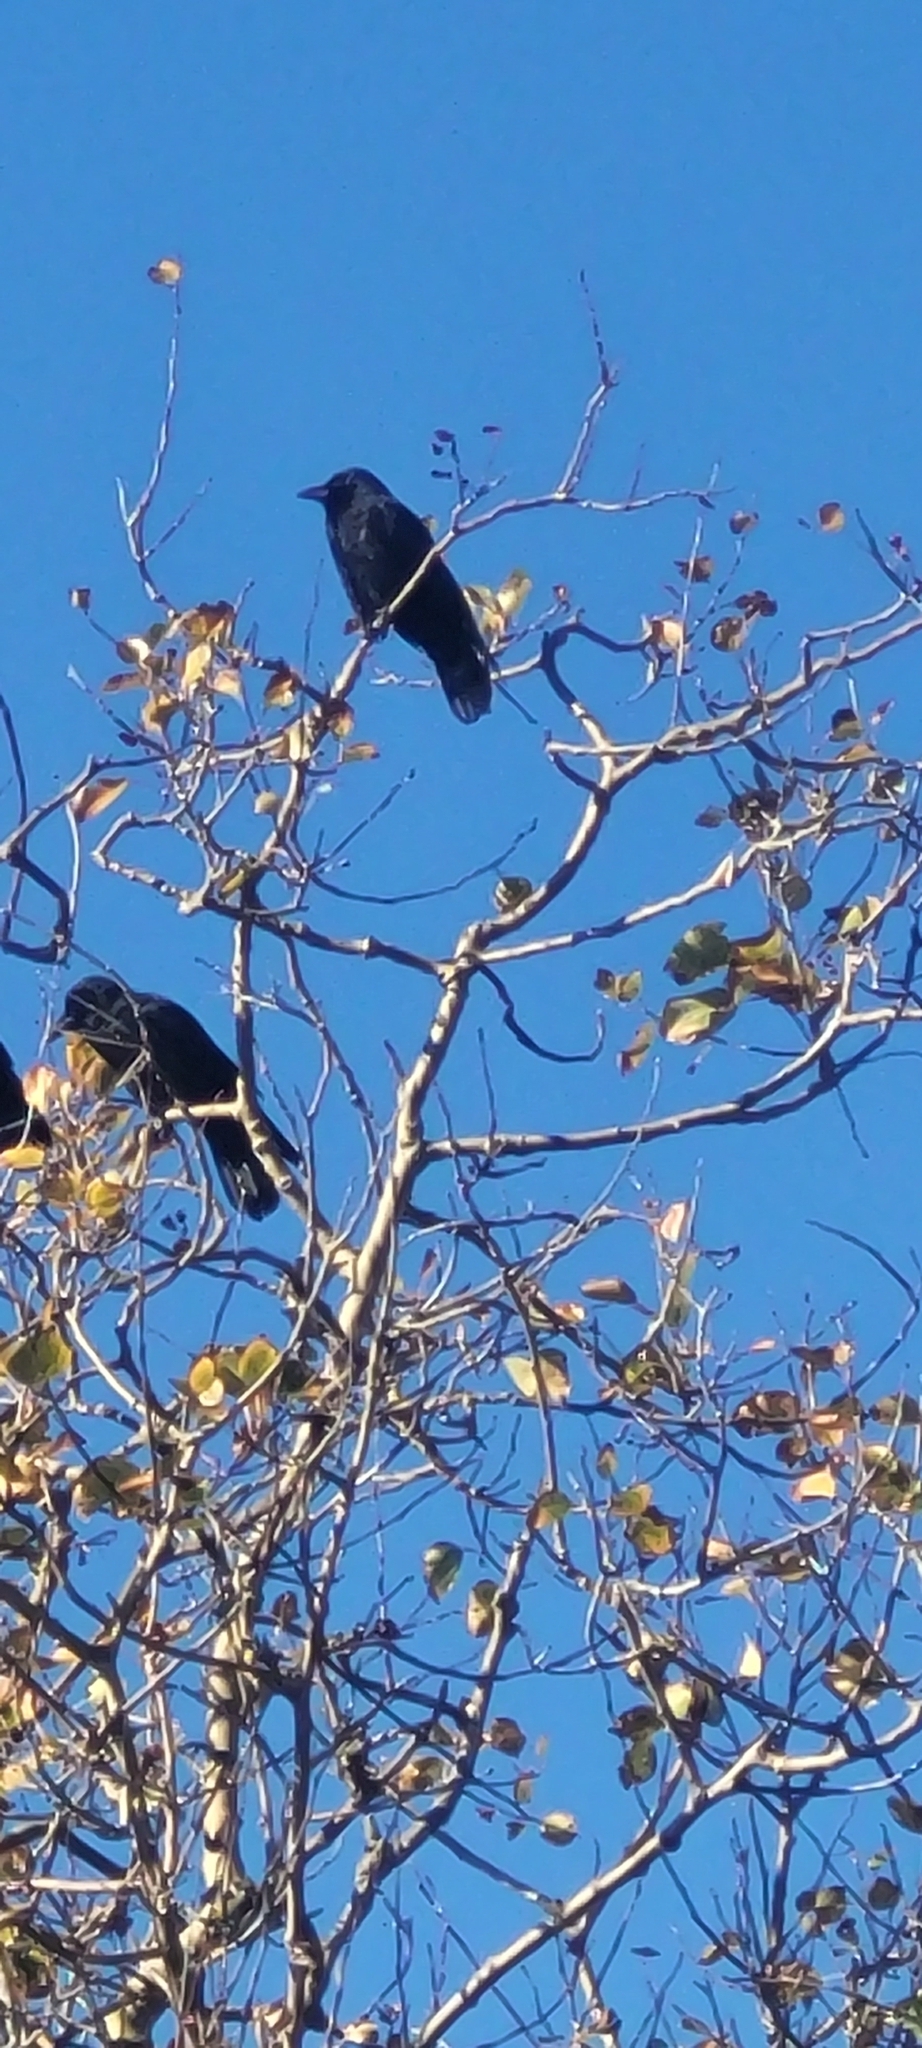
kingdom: Animalia
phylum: Chordata
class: Aves
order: Passeriformes
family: Corvidae
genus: Corvus
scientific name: Corvus brachyrhynchos
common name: American crow
